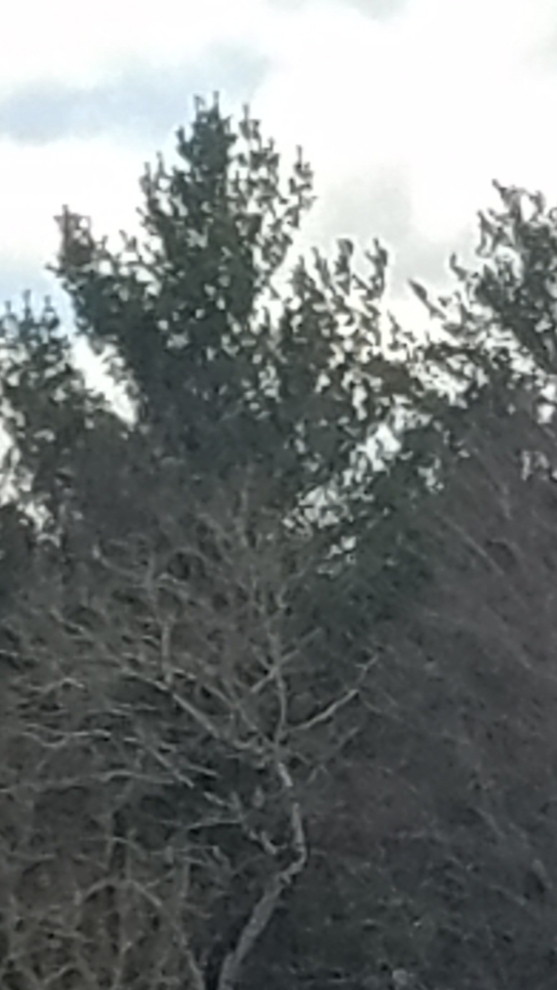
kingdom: Plantae
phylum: Tracheophyta
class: Pinopsida
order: Pinales
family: Pinaceae
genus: Pinus
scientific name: Pinus strobus
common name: Weymouth pine
